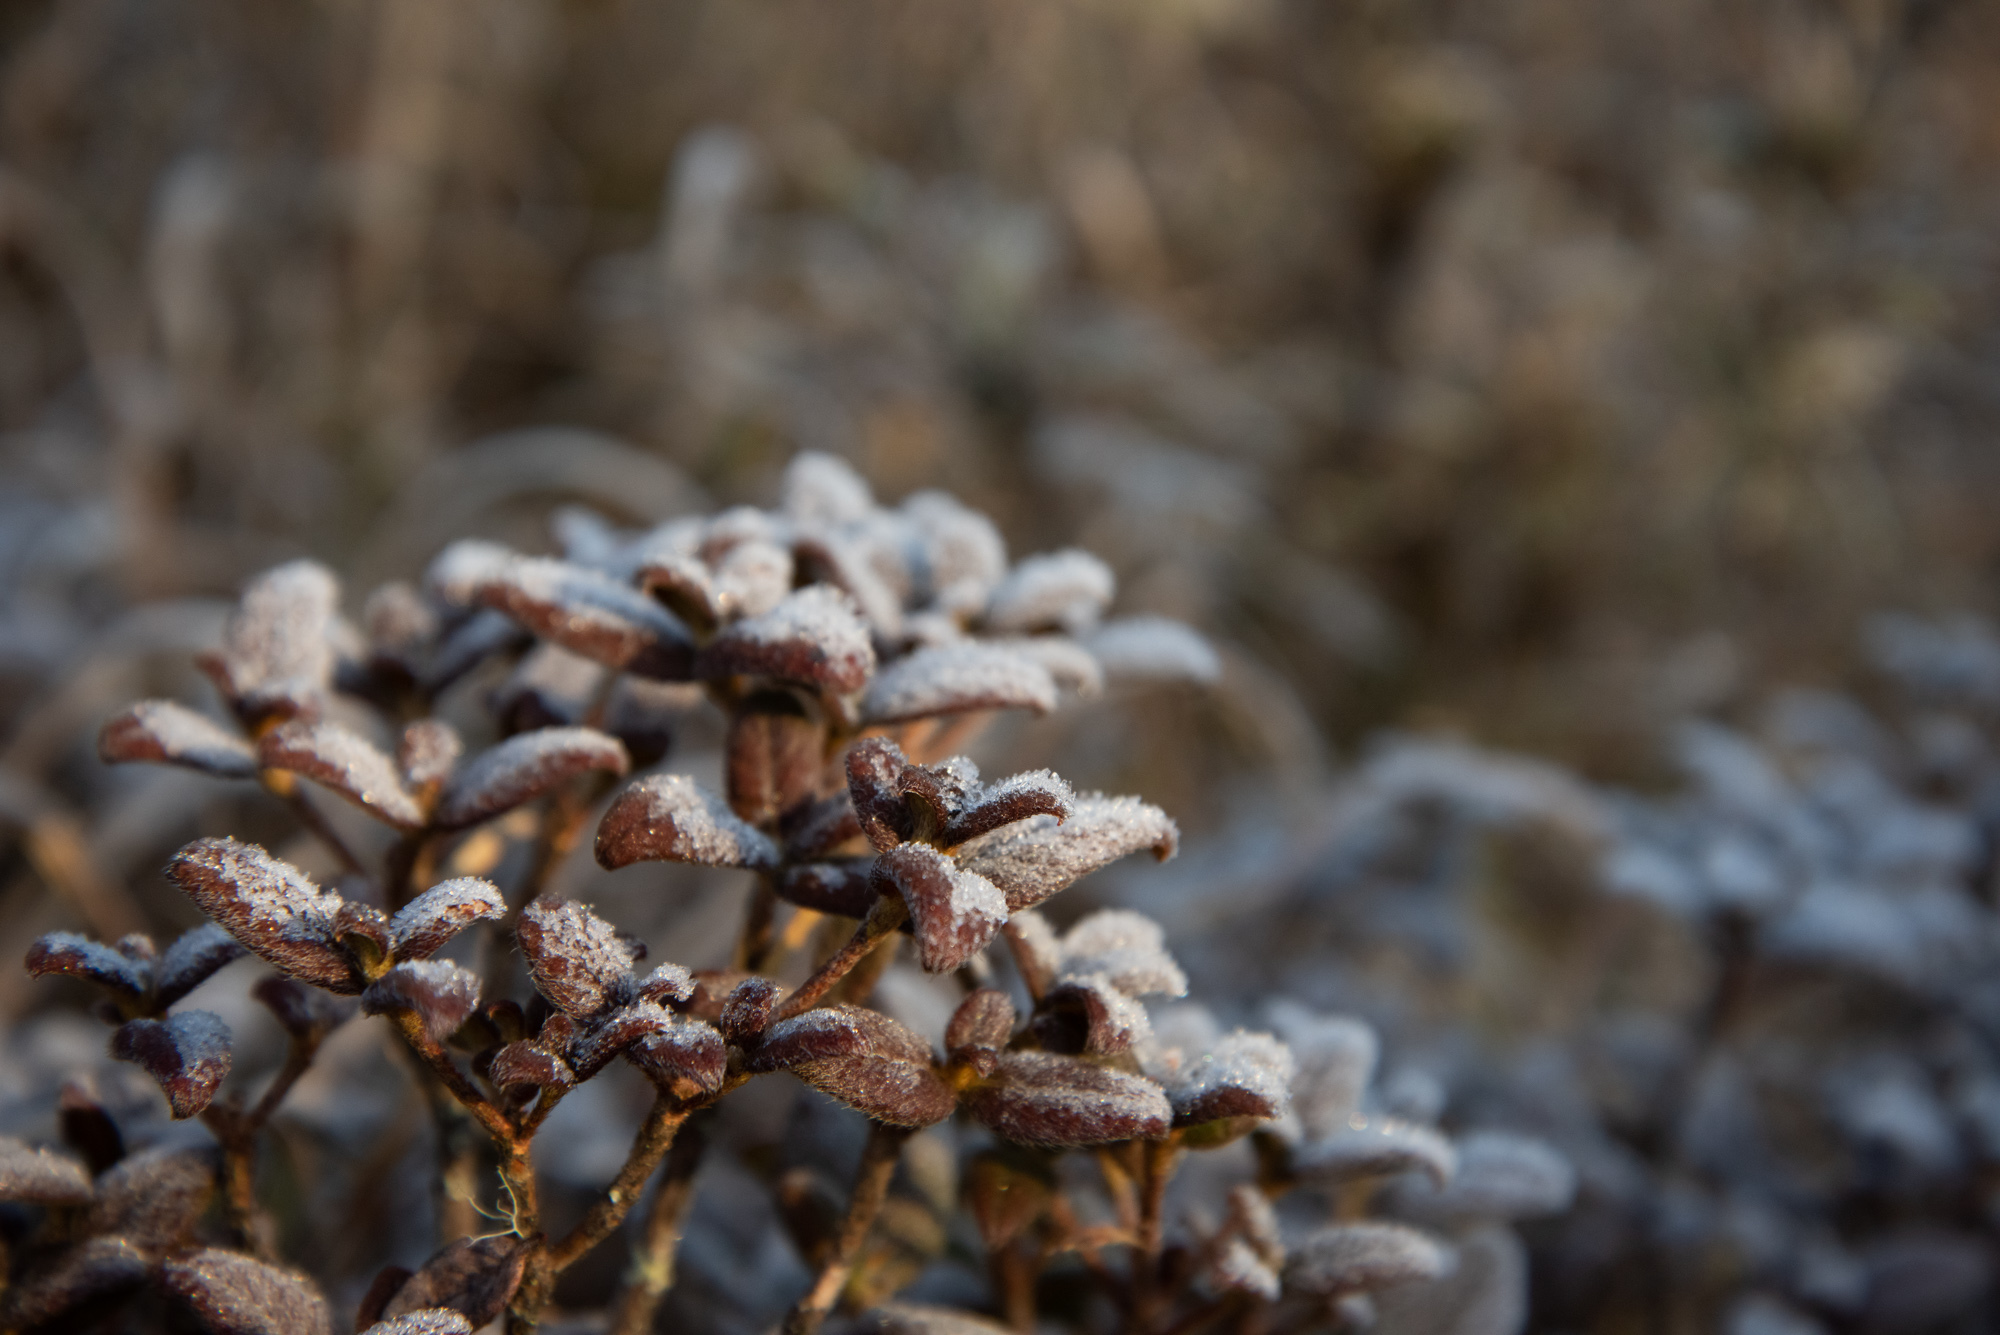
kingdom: Plantae
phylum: Tracheophyta
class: Magnoliopsida
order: Ericales
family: Ericaceae
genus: Rhododendron
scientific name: Rhododendron rubropilosum
